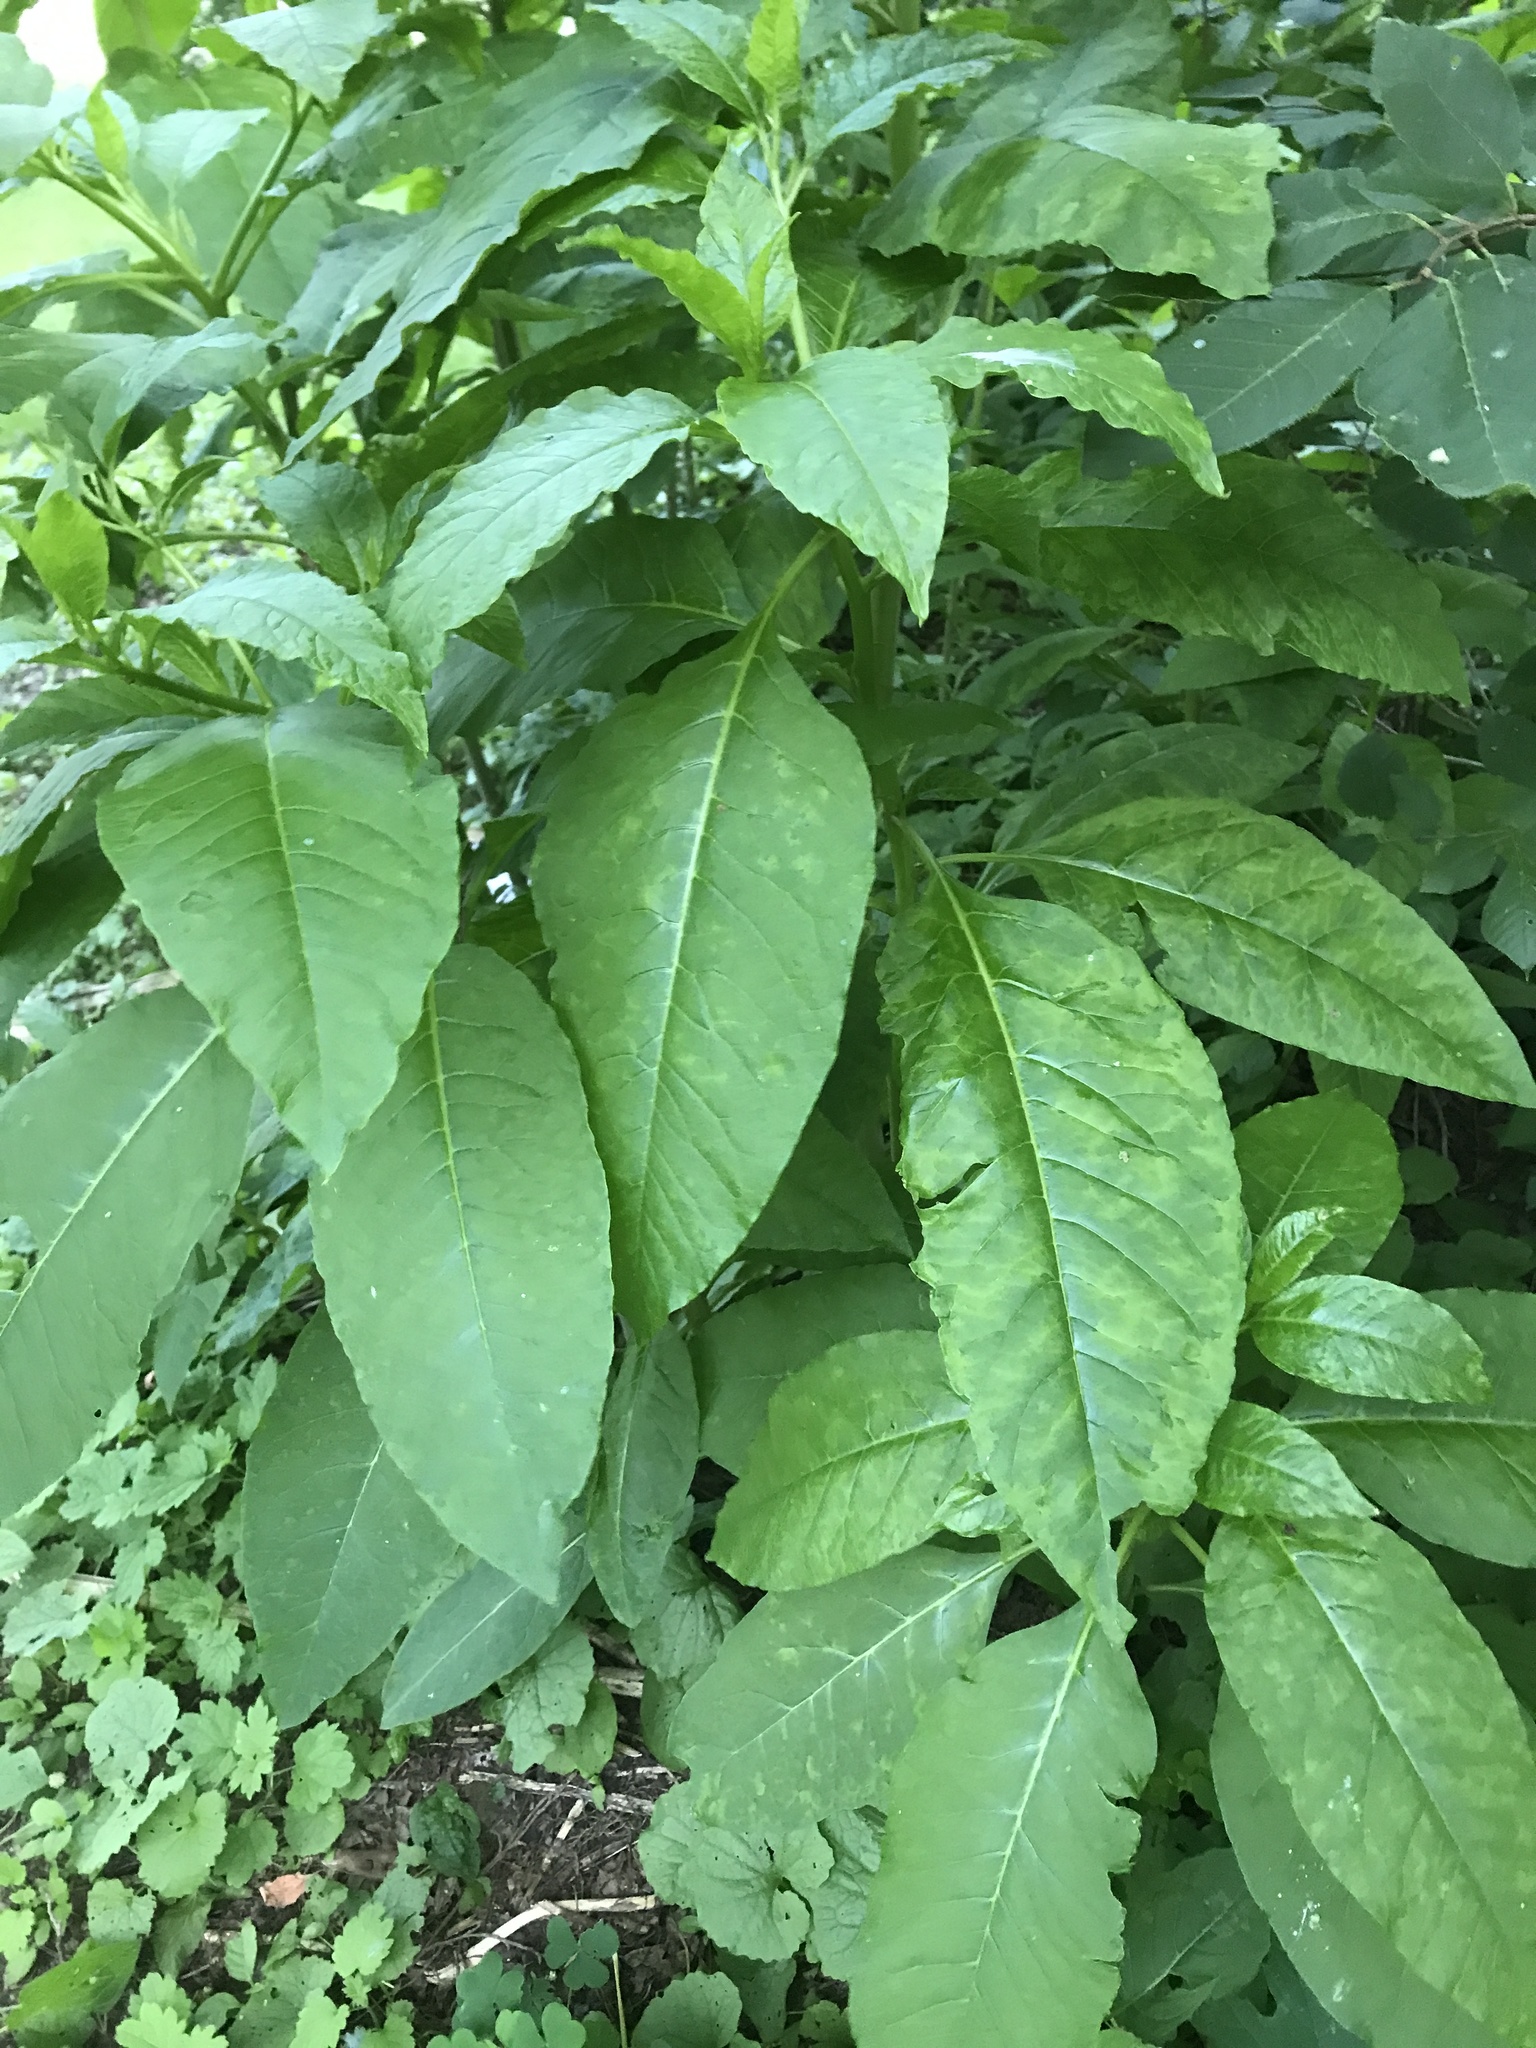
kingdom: Plantae
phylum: Tracheophyta
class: Magnoliopsida
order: Caryophyllales
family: Phytolaccaceae
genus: Phytolacca
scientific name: Phytolacca americana
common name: American pokeweed
